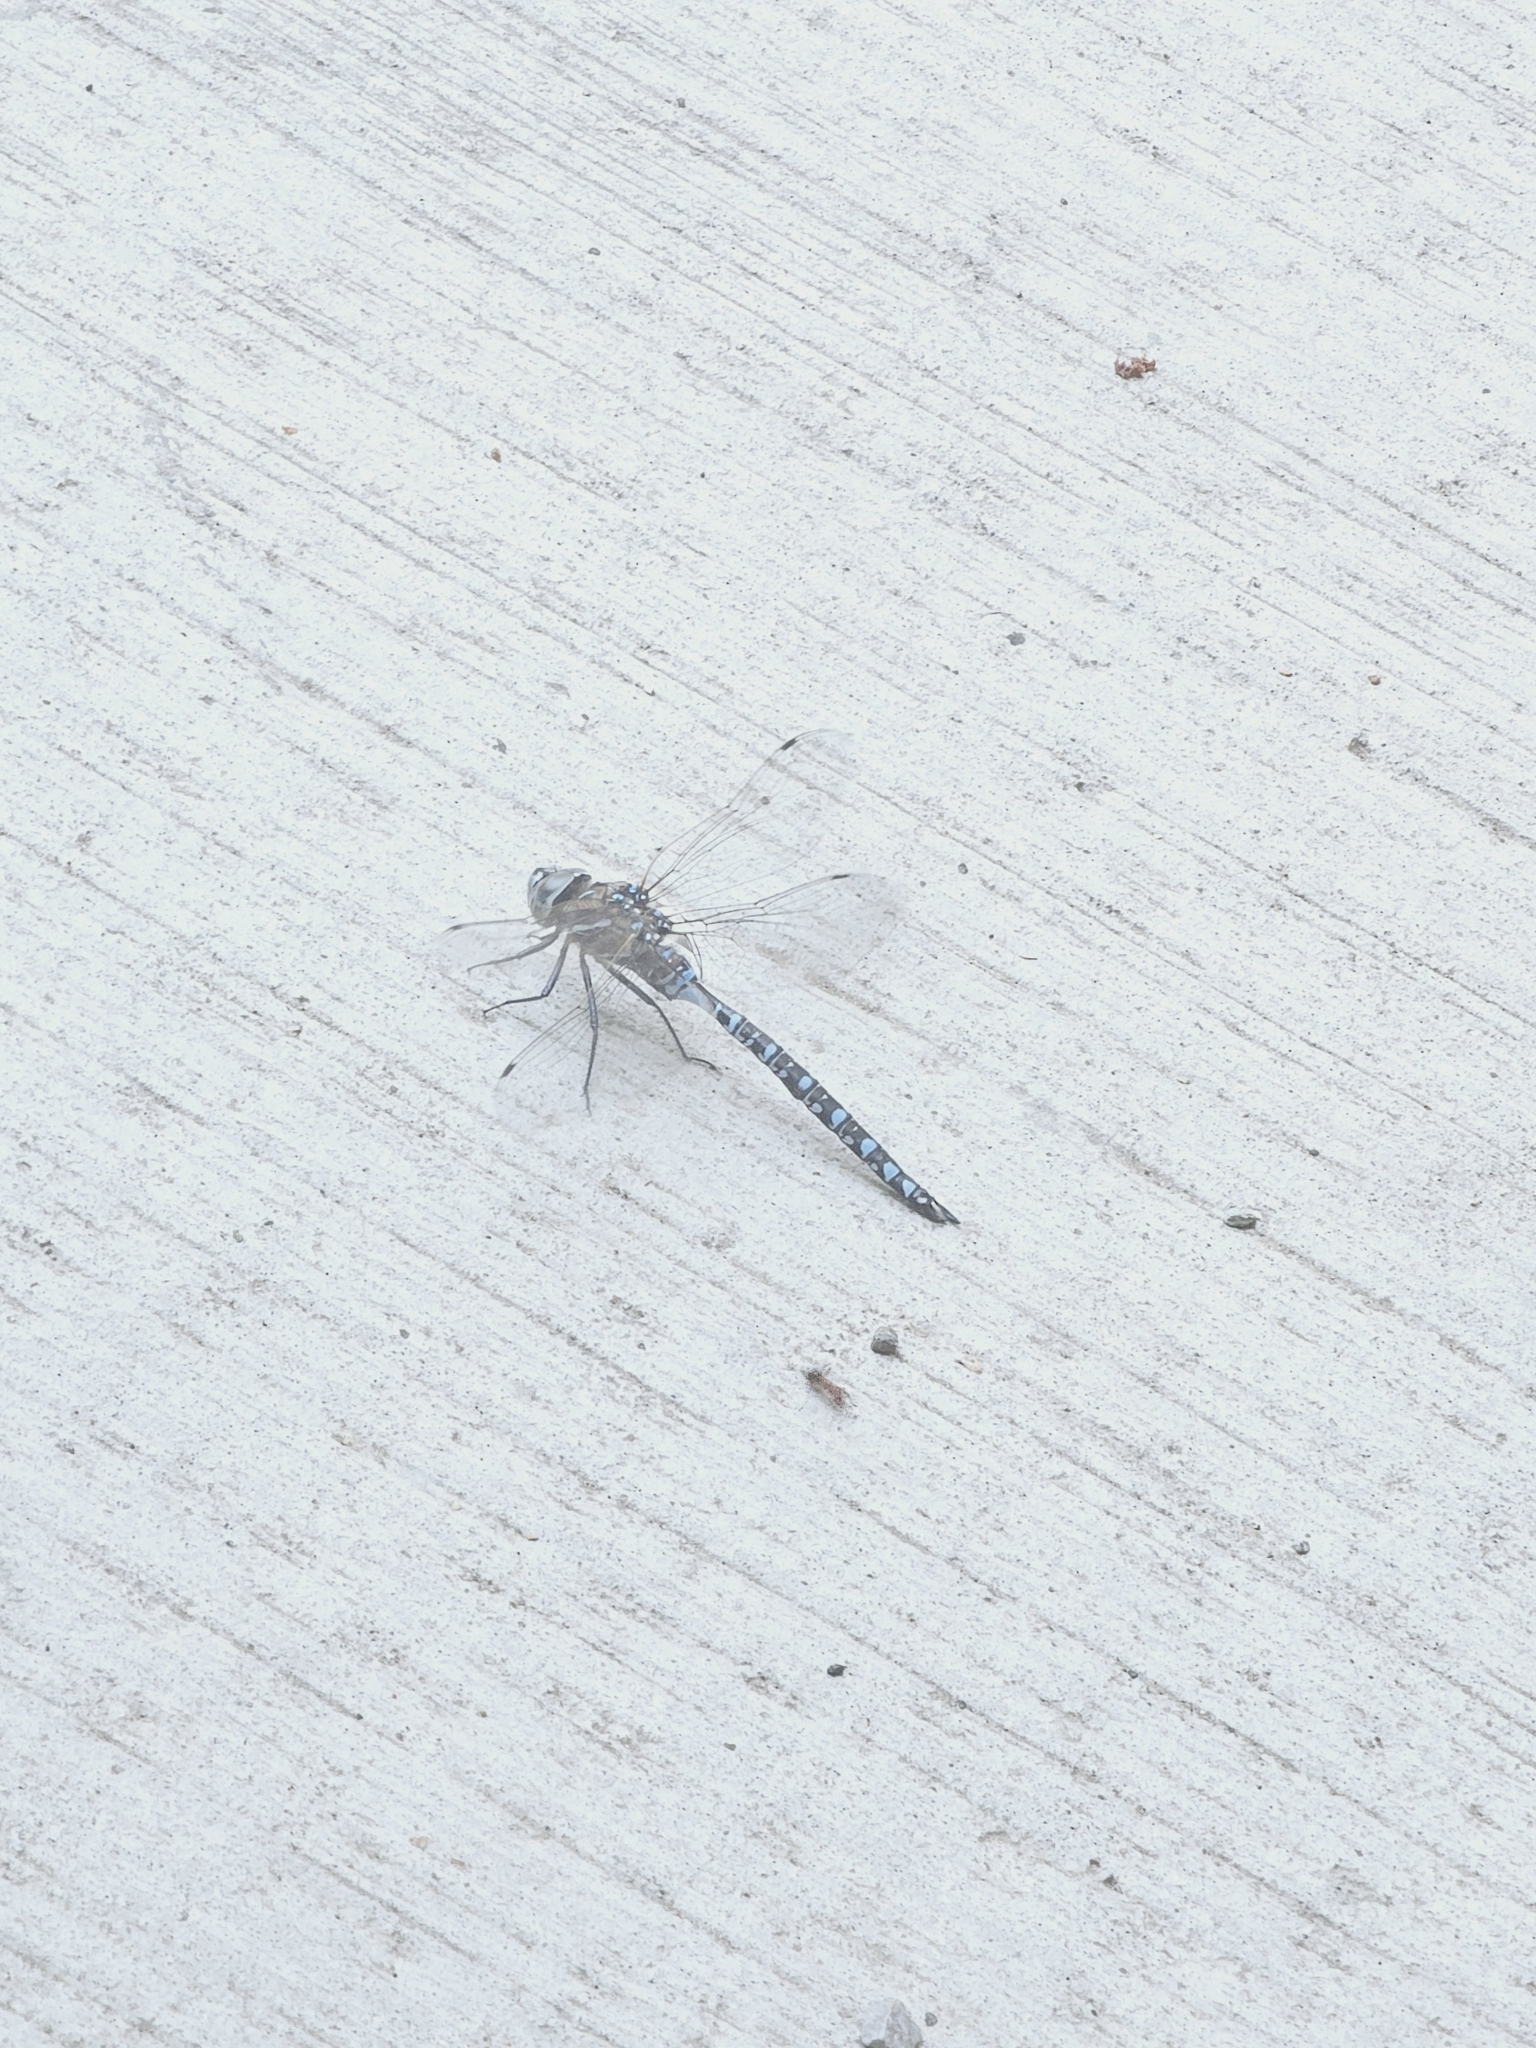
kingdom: Animalia
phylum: Arthropoda
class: Insecta
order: Odonata
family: Aeshnidae
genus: Aeshna
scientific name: Aeshna interrupta
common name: Variable darner
